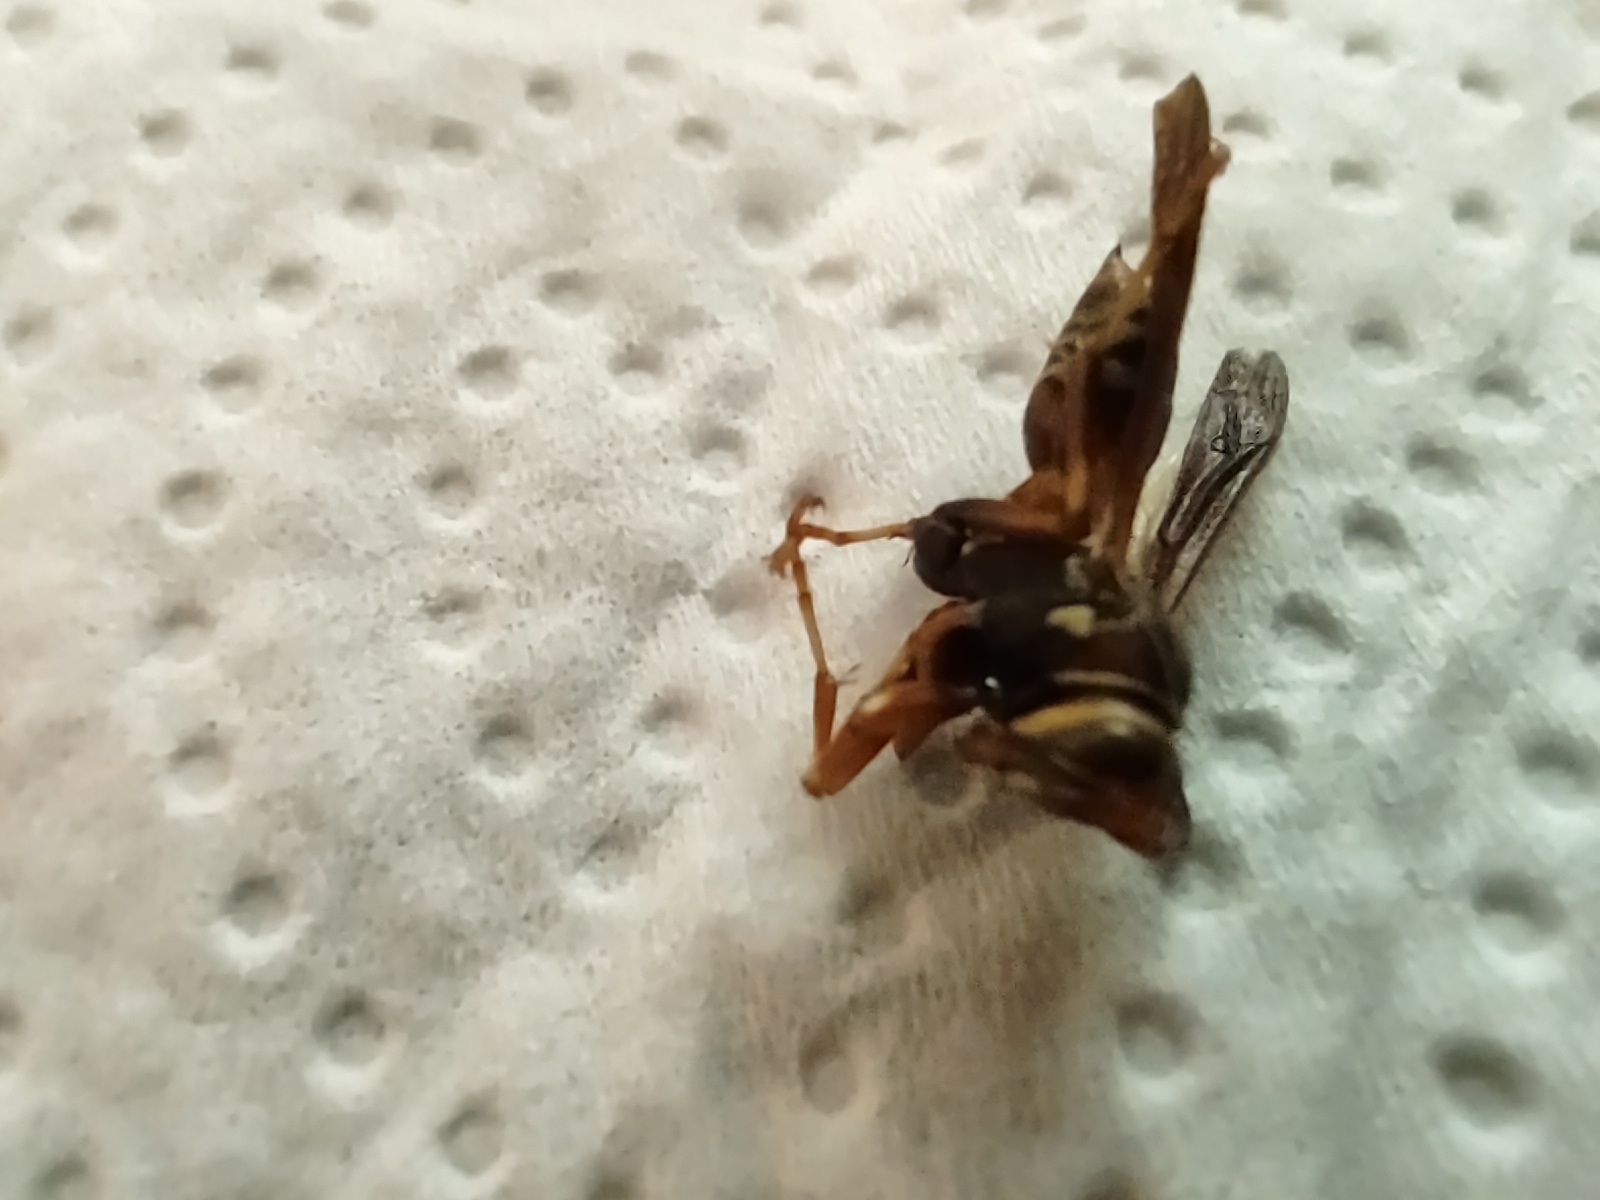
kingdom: Animalia
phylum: Arthropoda
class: Insecta
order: Hymenoptera
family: Eumenidae
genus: Polistes
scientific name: Polistes fuscatus
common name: Dark paper wasp
